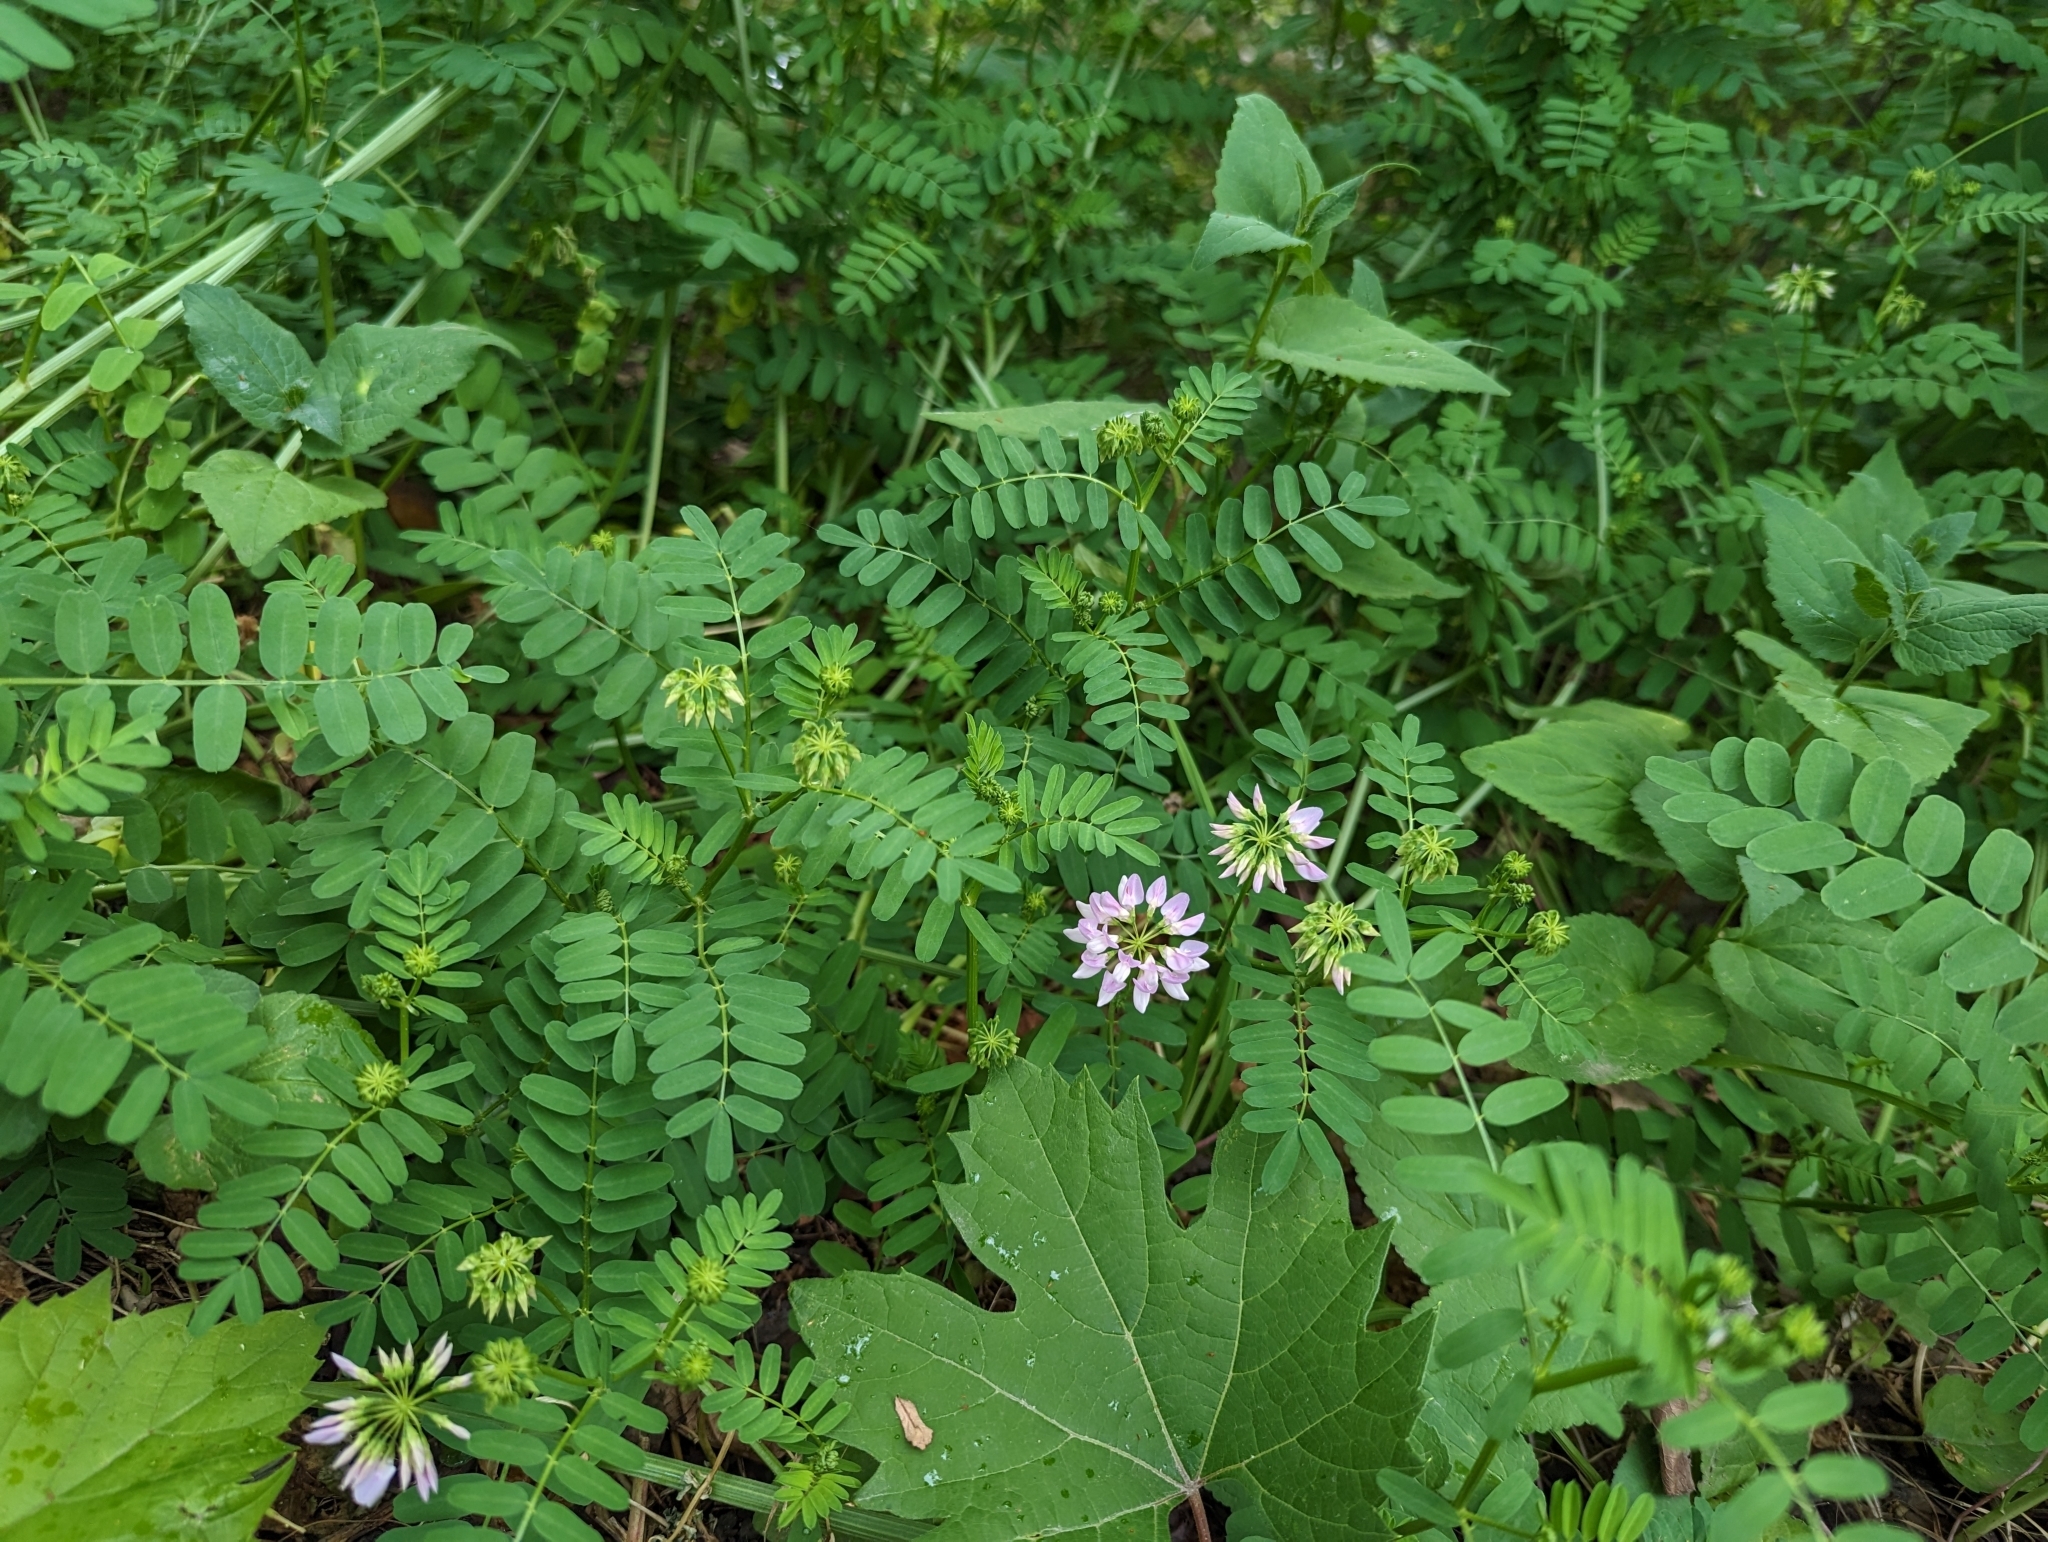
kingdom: Plantae
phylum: Tracheophyta
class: Magnoliopsida
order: Fabales
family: Fabaceae
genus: Coronilla
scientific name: Coronilla varia
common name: Crownvetch
